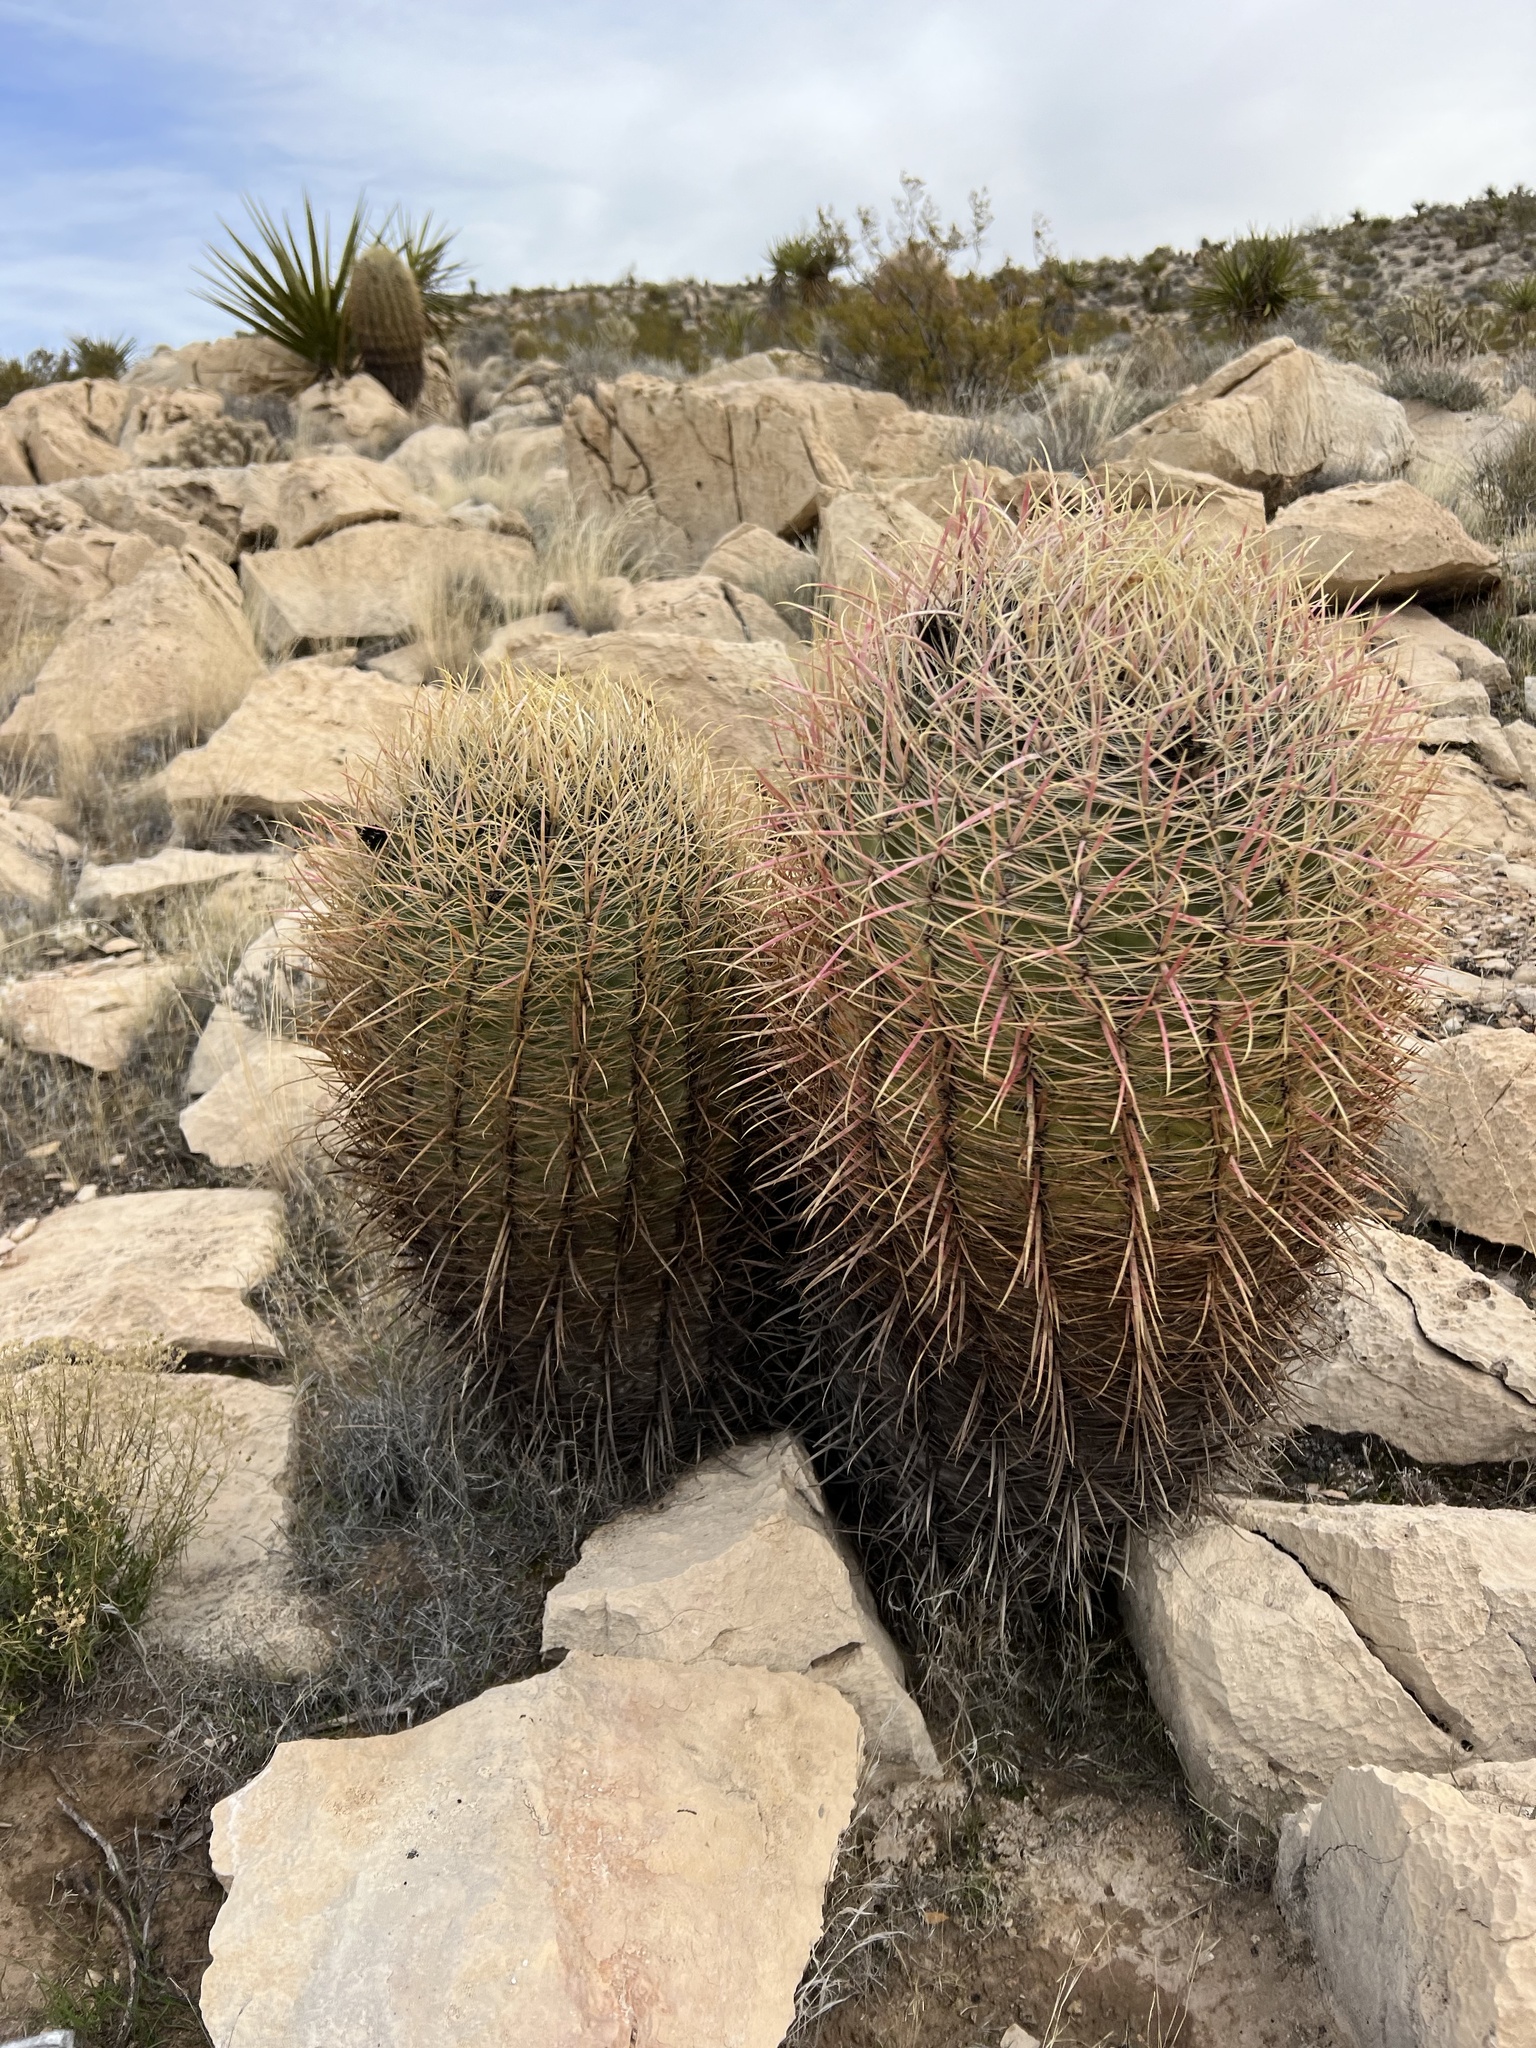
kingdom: Plantae
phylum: Tracheophyta
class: Magnoliopsida
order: Caryophyllales
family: Cactaceae
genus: Ferocactus
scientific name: Ferocactus cylindraceus
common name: California barrel cactus
